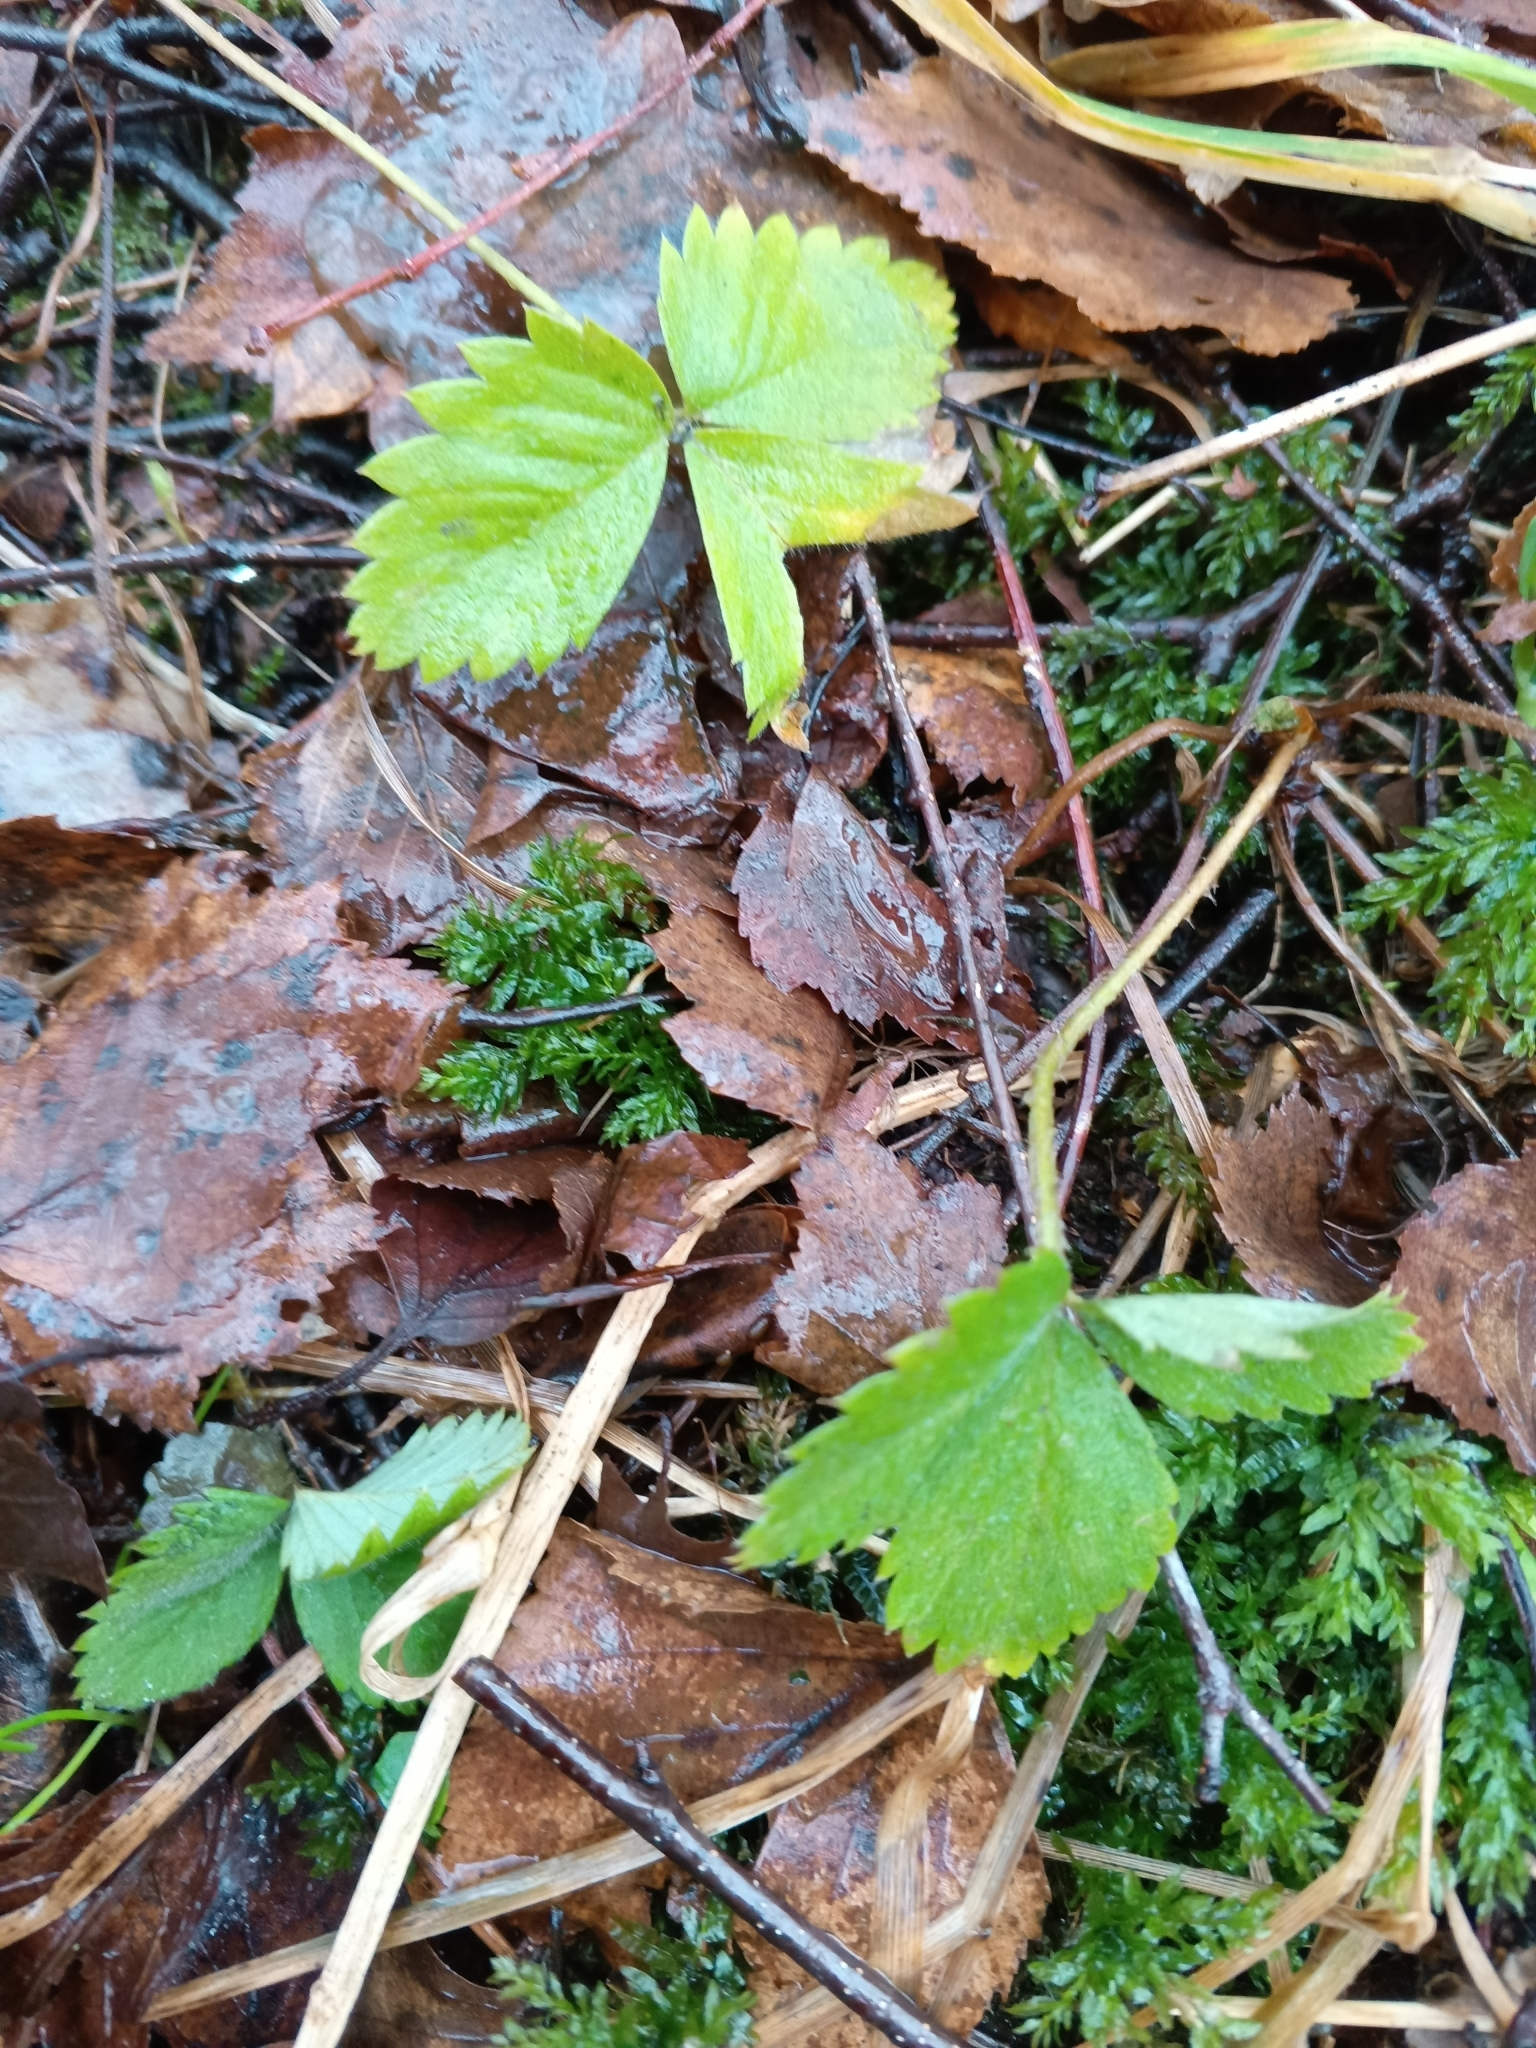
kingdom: Plantae
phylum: Tracheophyta
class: Magnoliopsida
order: Rosales
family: Rosaceae
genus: Fragaria
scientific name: Fragaria vesca
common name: Wild strawberry
